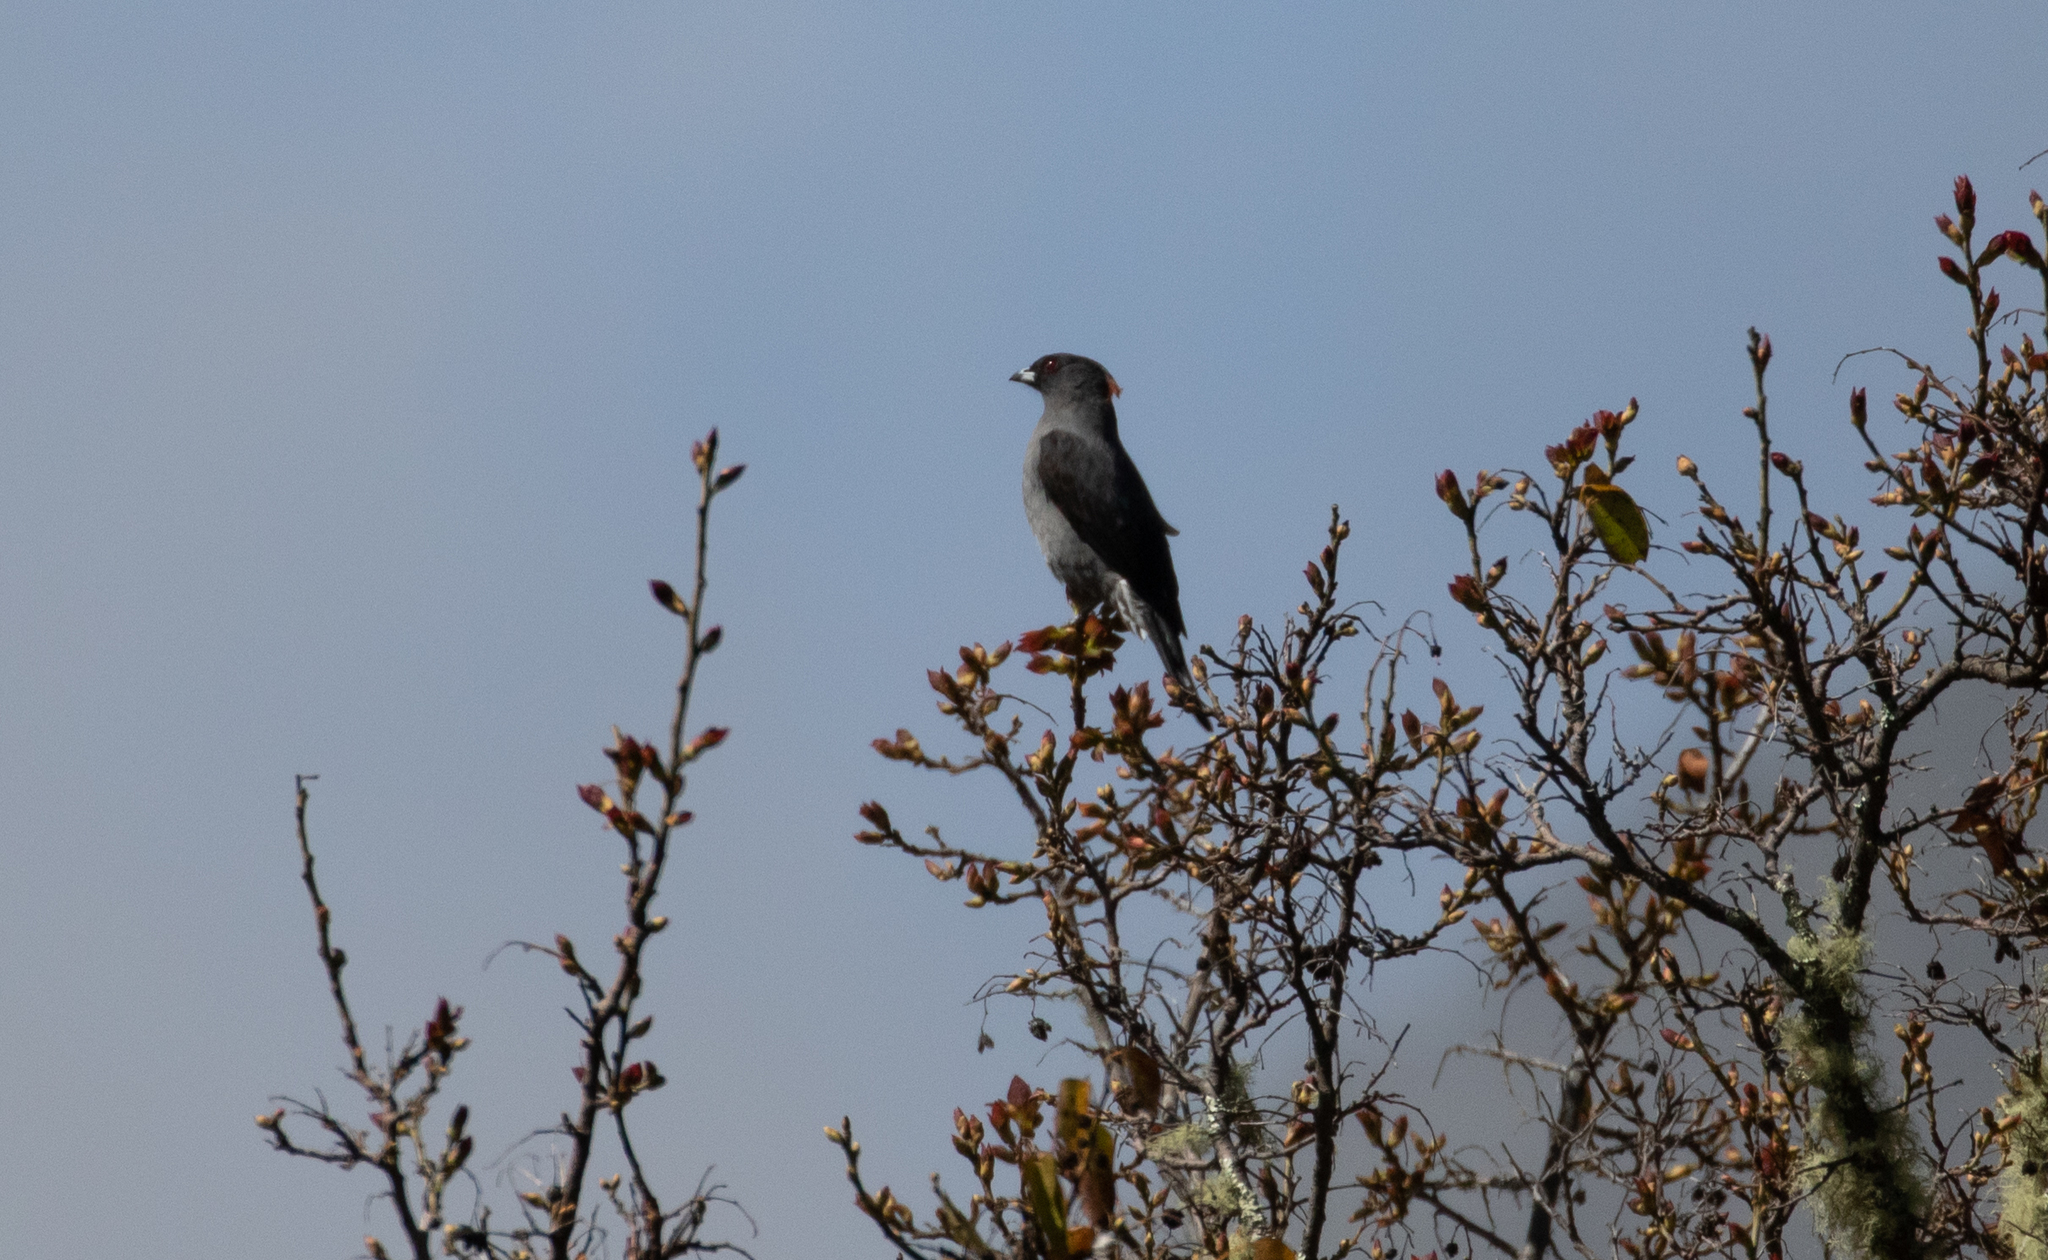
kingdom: Animalia
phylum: Chordata
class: Aves
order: Passeriformes
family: Cotingidae
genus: Ampelion
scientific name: Ampelion rubrocristatus
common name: Red-crested cotinga
